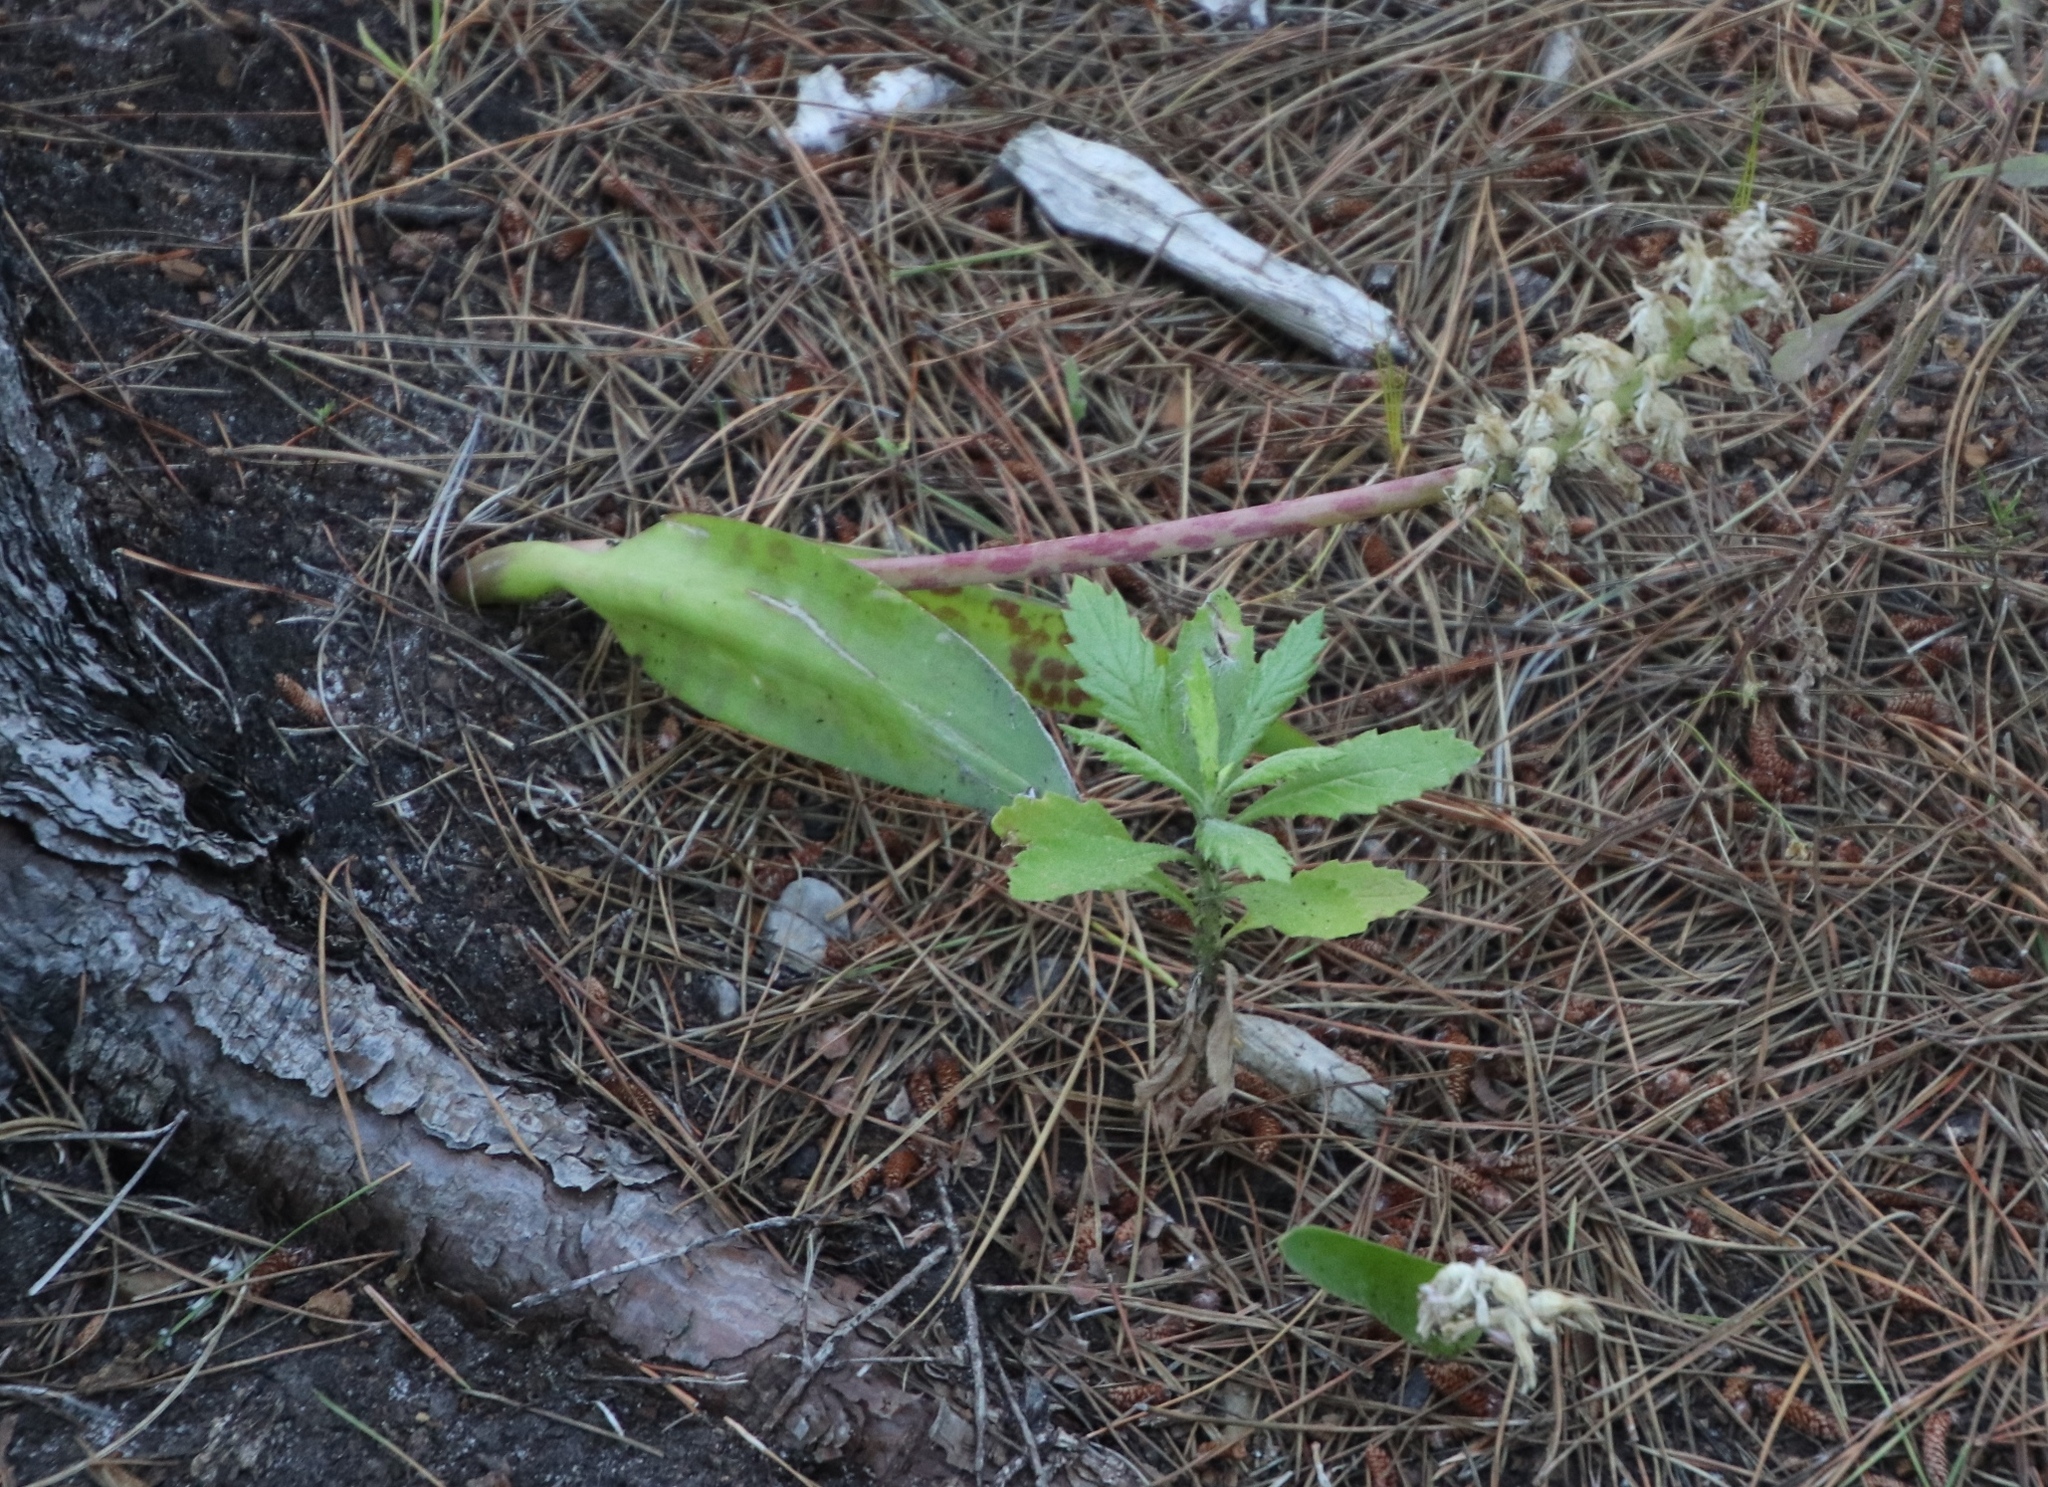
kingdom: Plantae
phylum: Tracheophyta
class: Liliopsida
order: Asparagales
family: Asparagaceae
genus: Lachenalia
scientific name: Lachenalia orchioides
